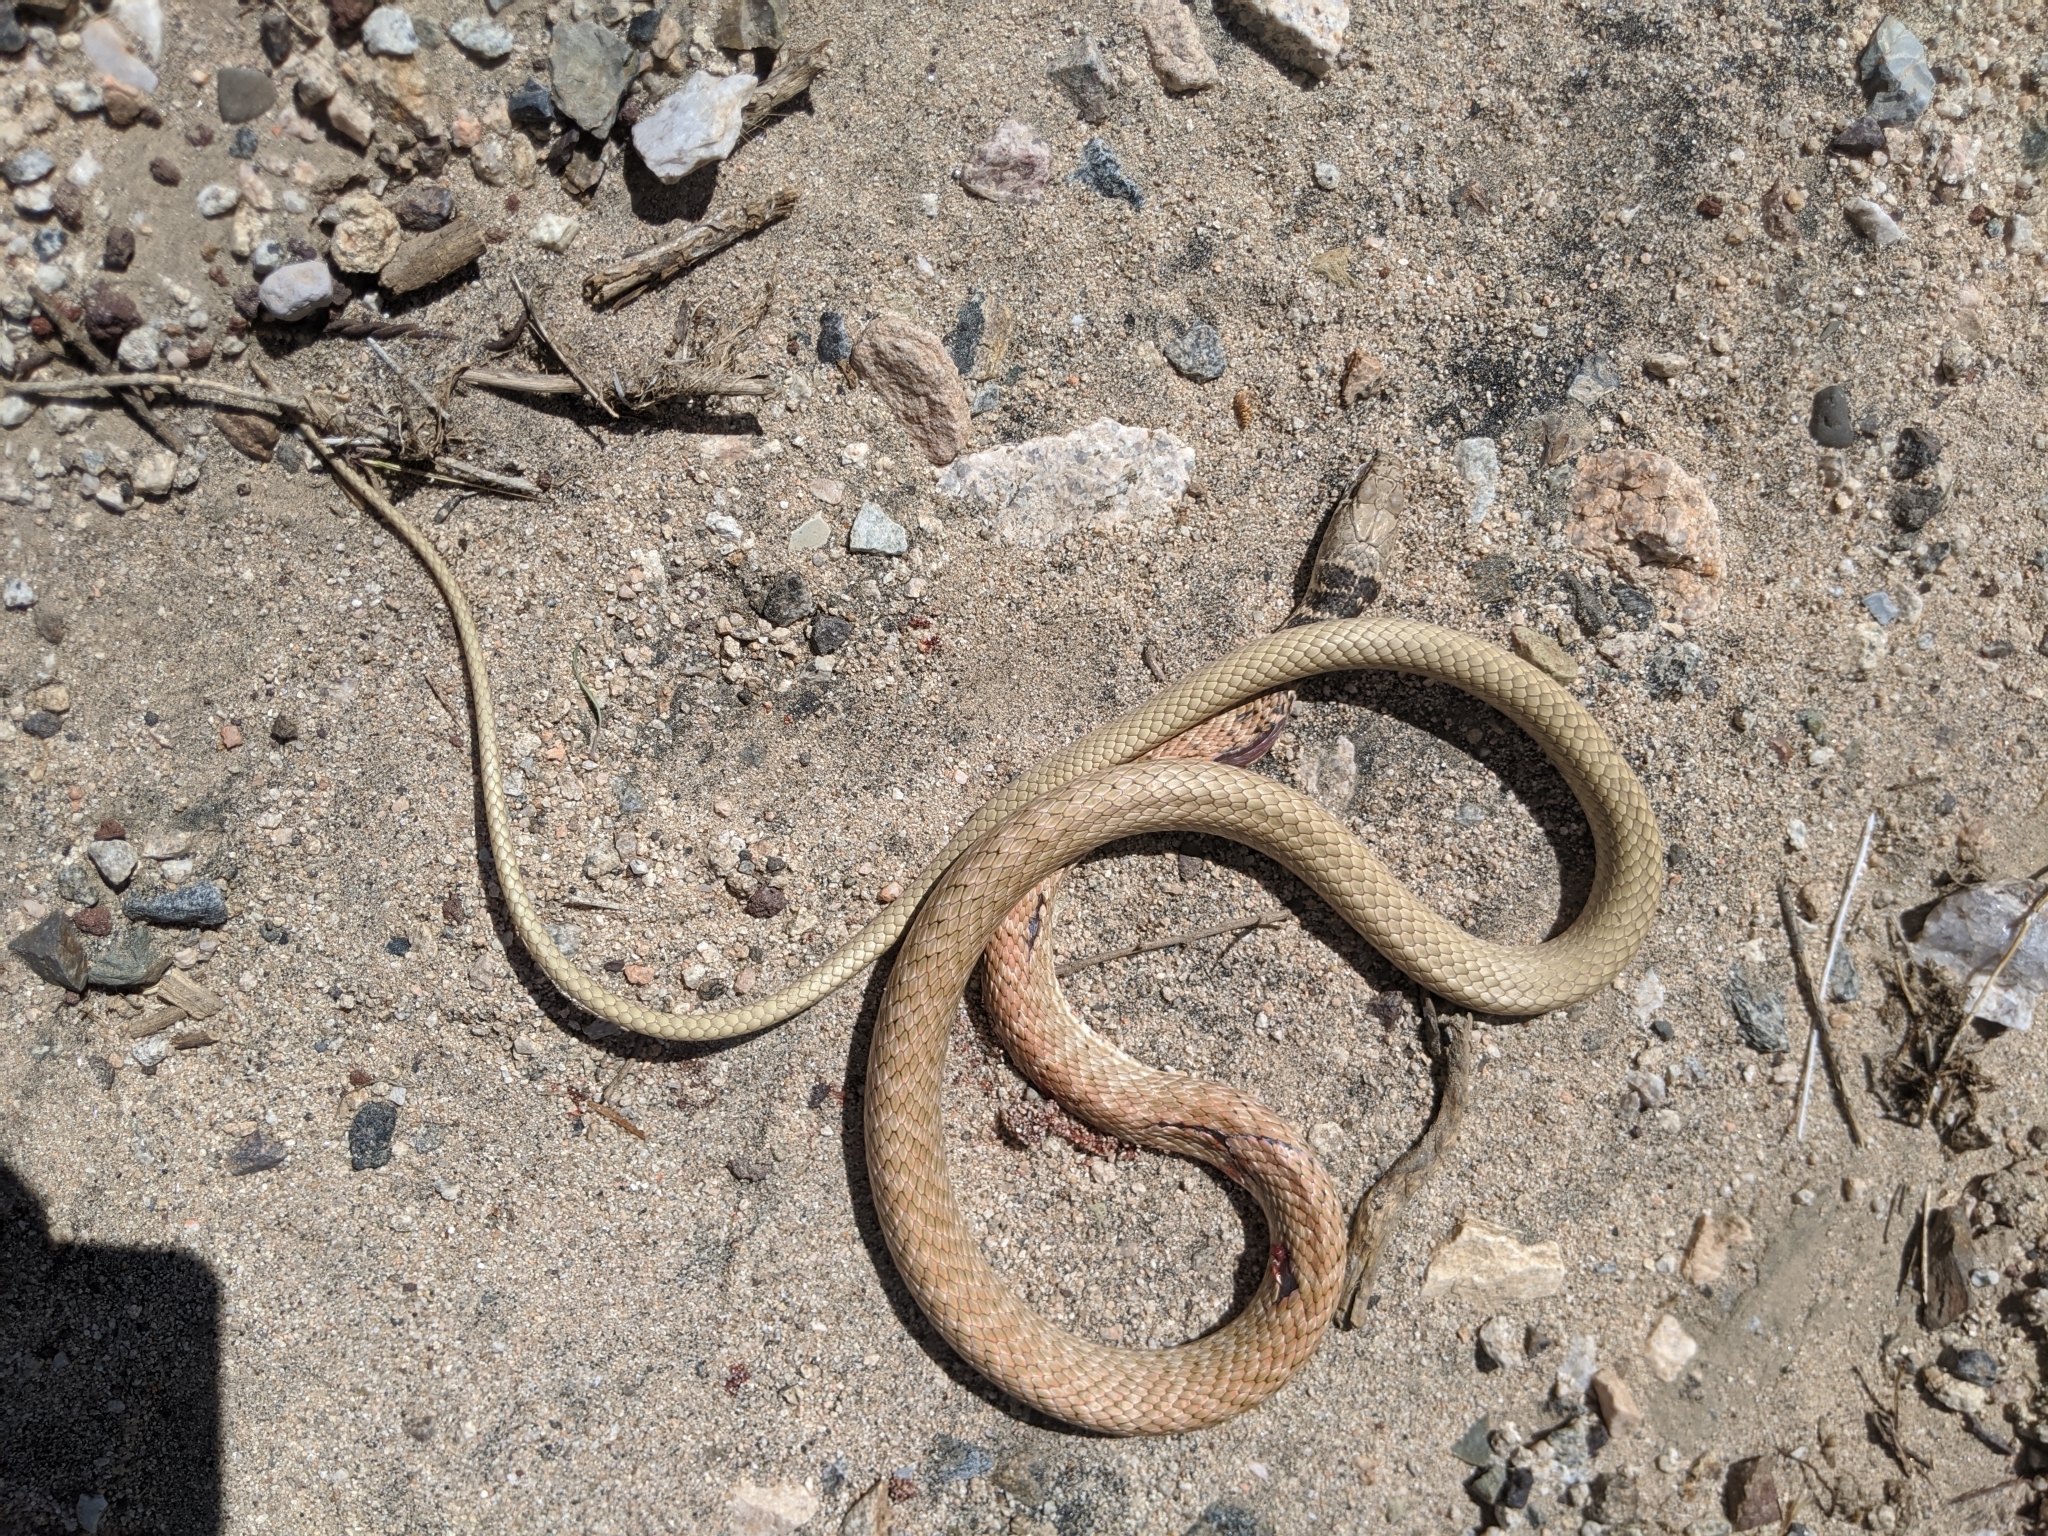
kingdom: Animalia
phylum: Chordata
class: Squamata
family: Colubridae
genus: Masticophis
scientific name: Masticophis flagellum
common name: Coachwhip
